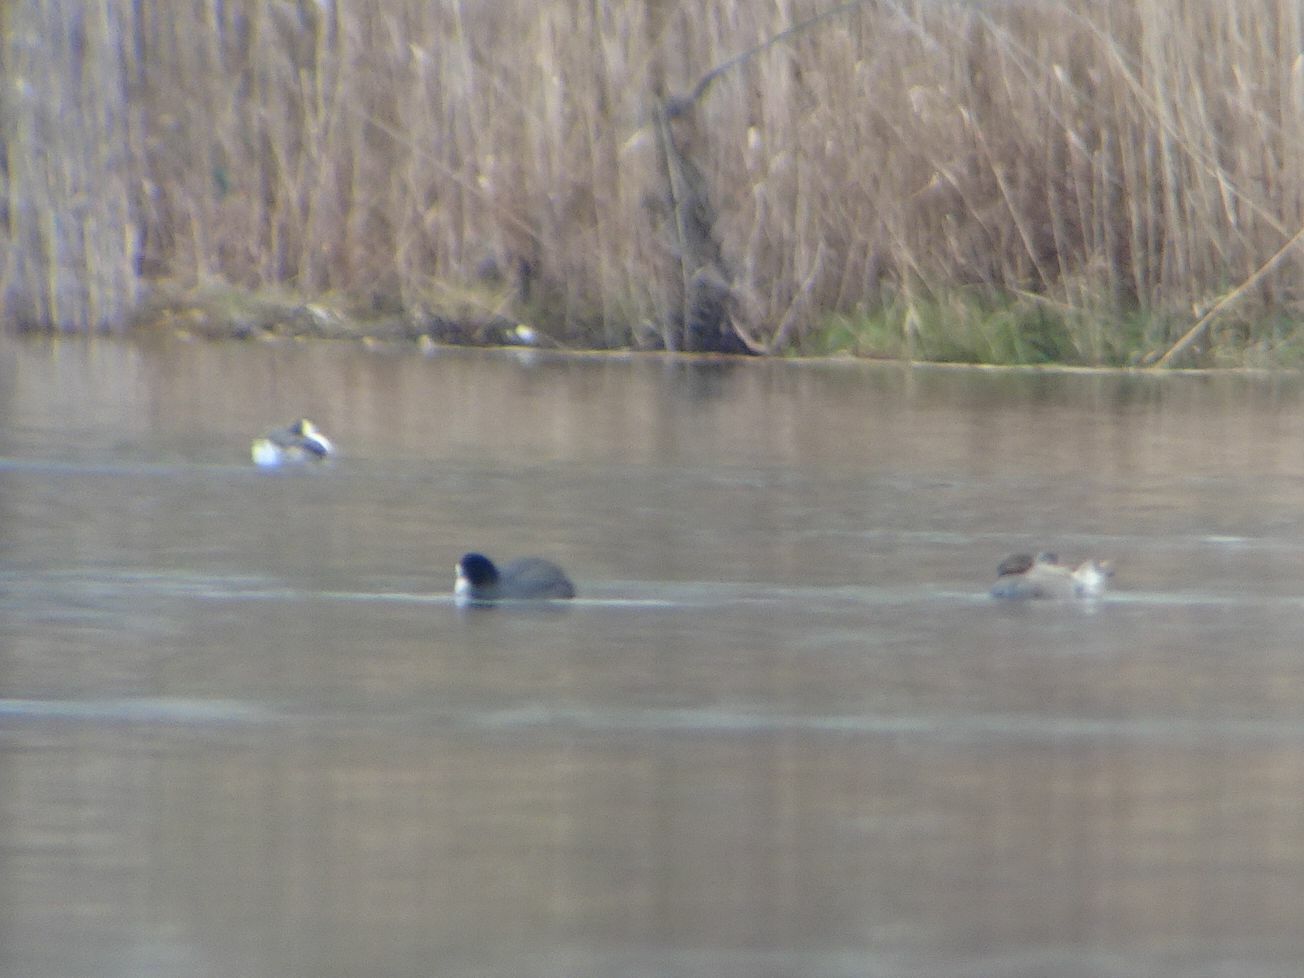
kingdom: Animalia
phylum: Chordata
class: Aves
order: Podicipediformes
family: Podicipedidae
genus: Podiceps
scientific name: Podiceps cristatus
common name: Great crested grebe
